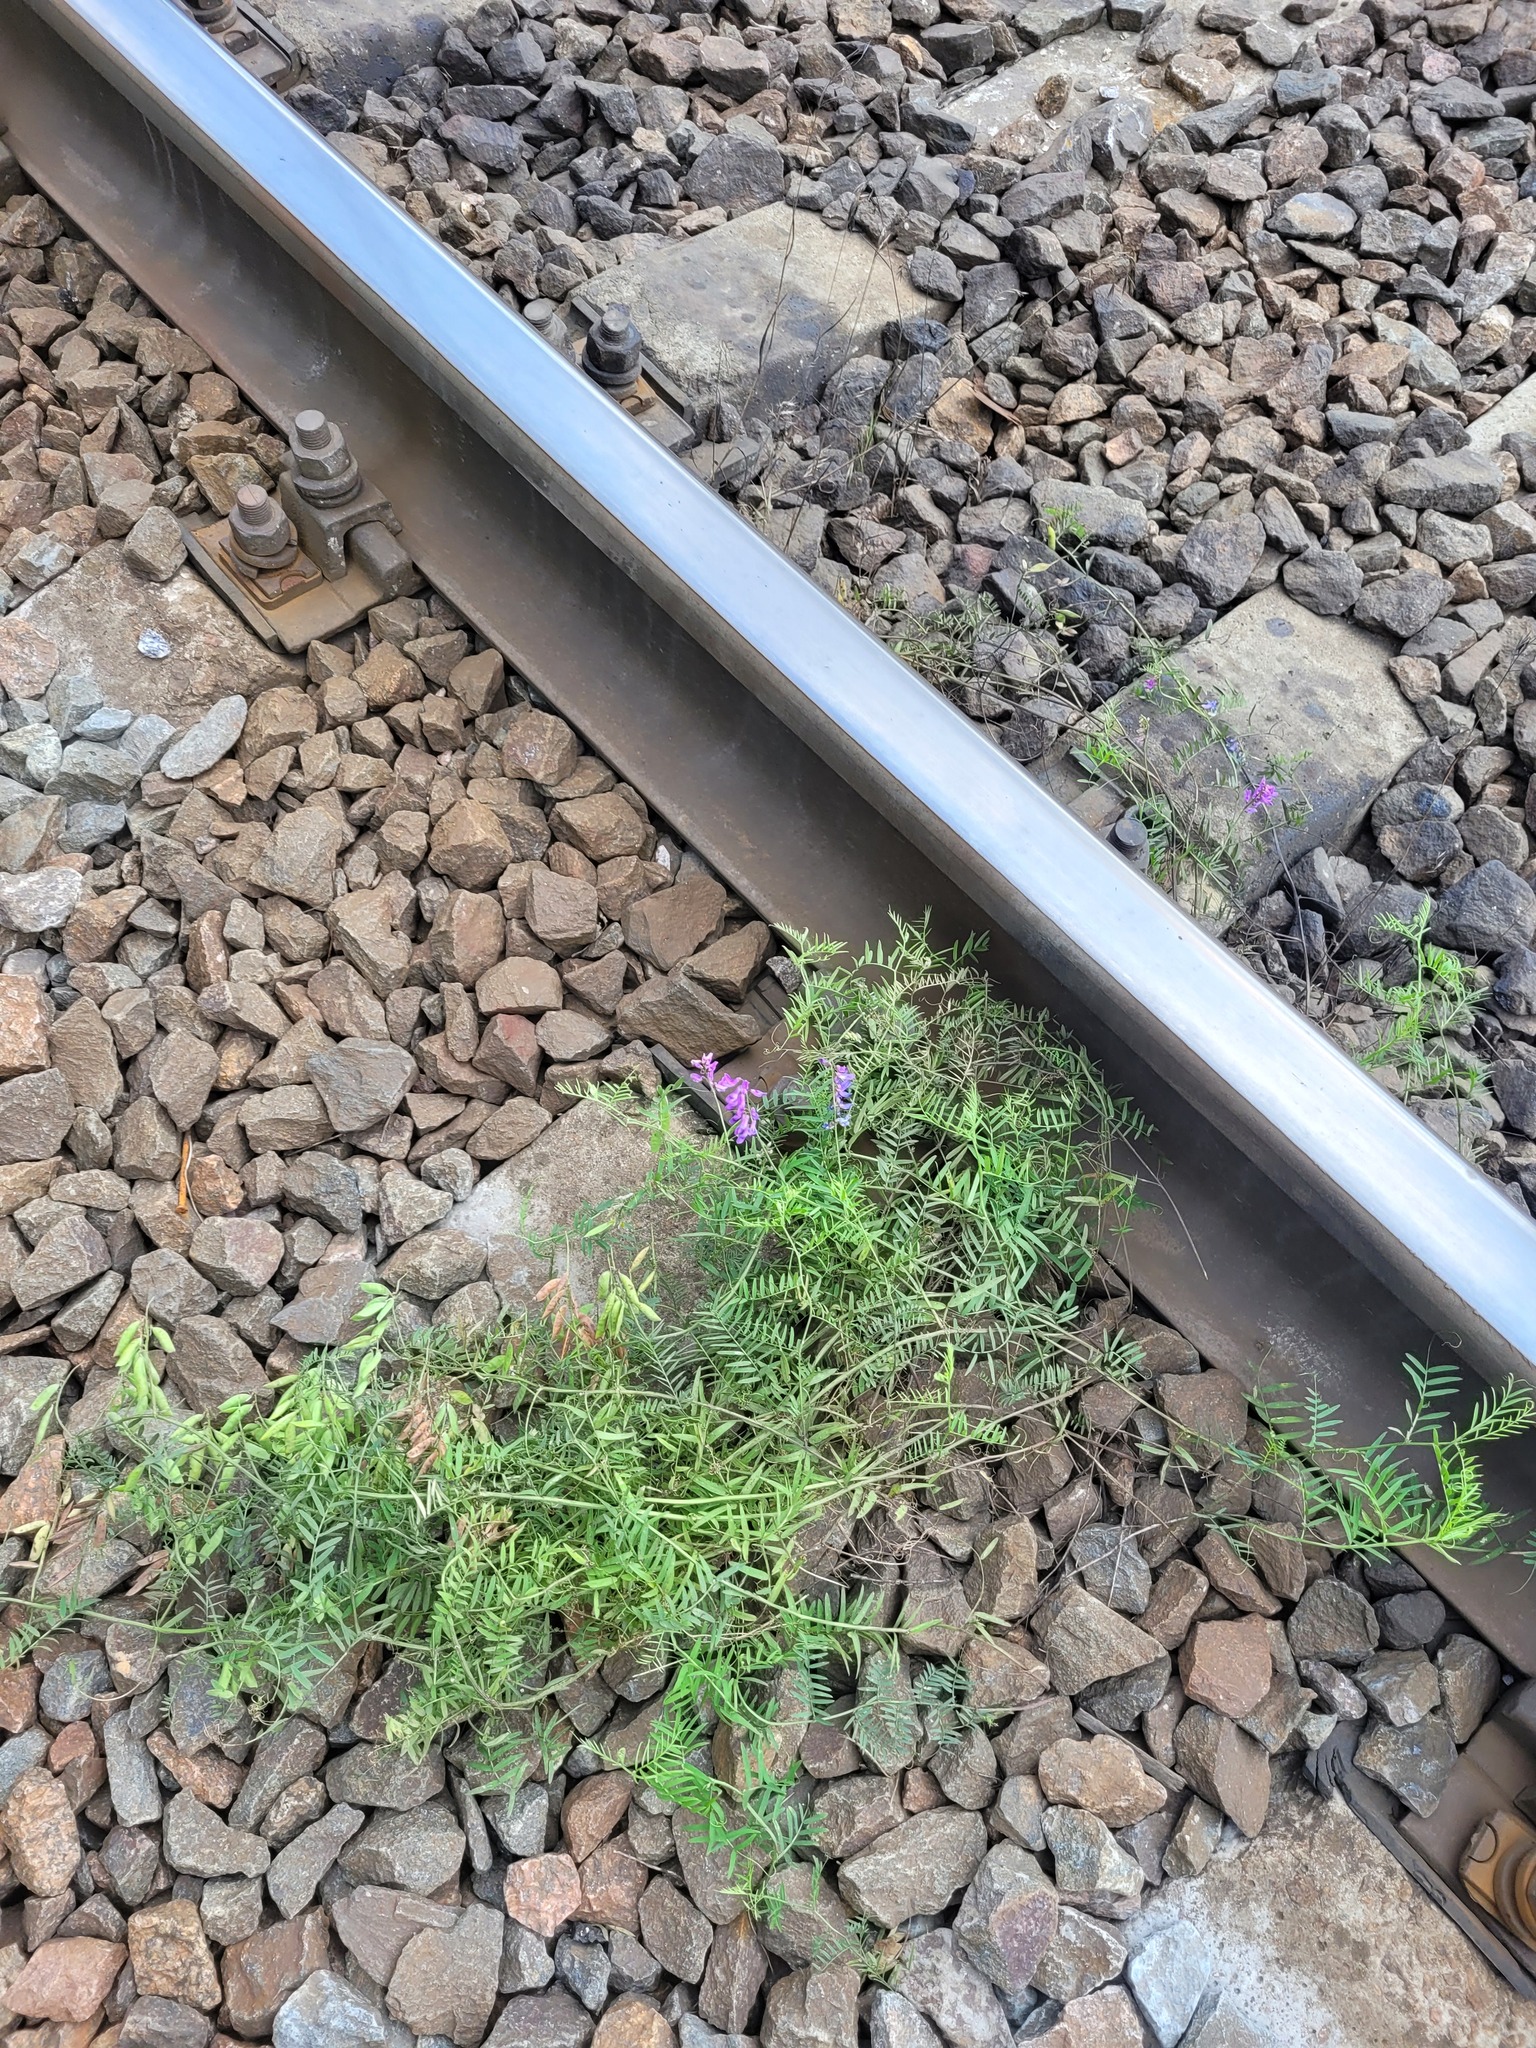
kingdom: Plantae
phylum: Tracheophyta
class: Magnoliopsida
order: Fabales
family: Fabaceae
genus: Vicia
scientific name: Vicia cracca
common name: Bird vetch
